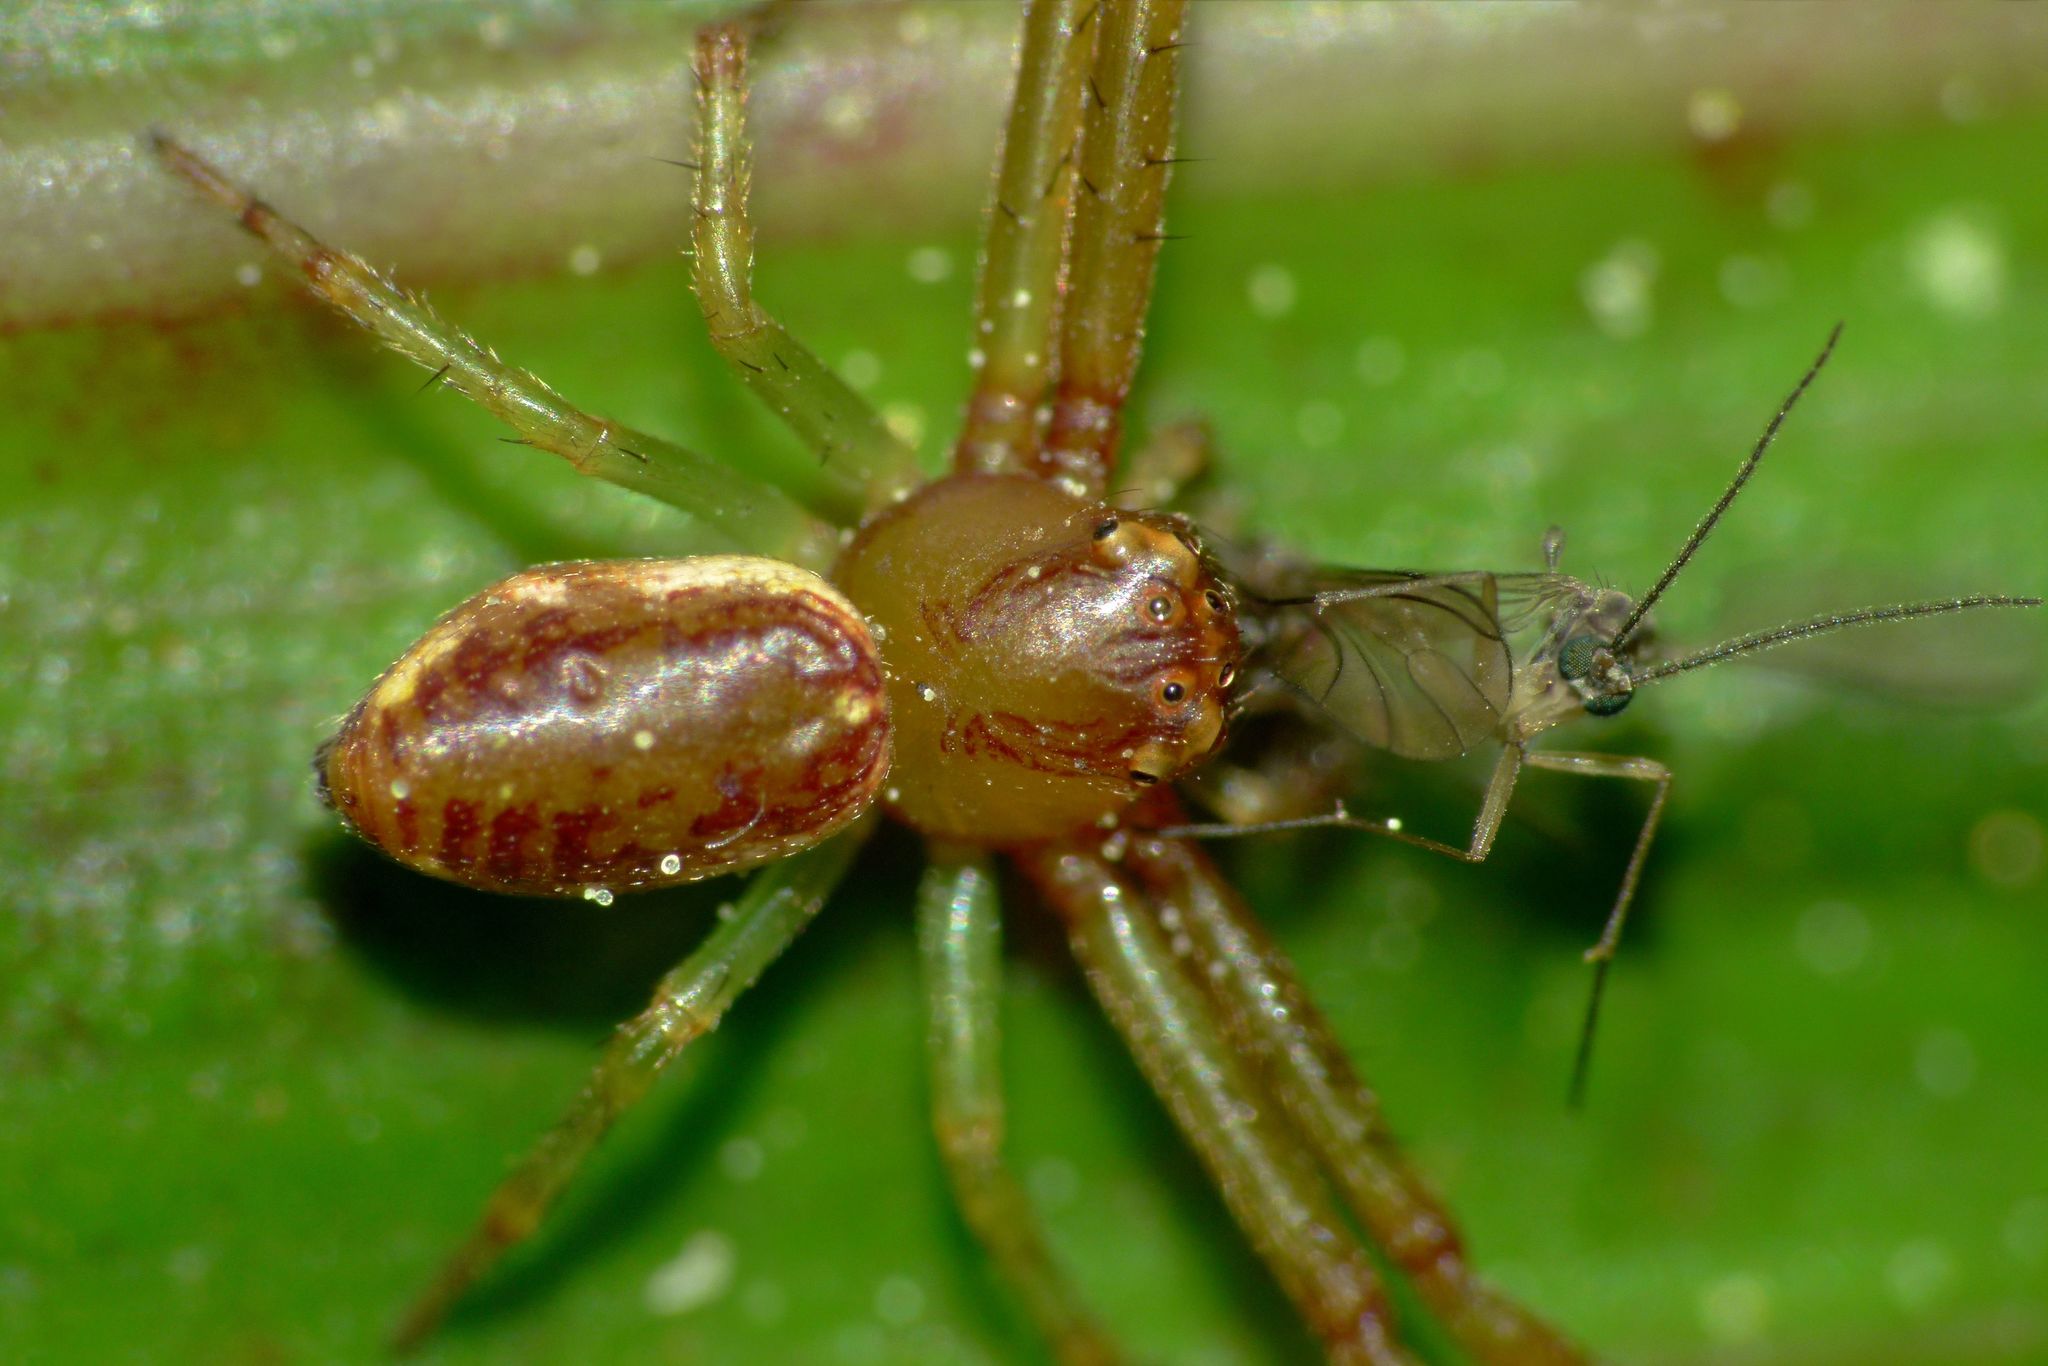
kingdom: Animalia
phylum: Arthropoda
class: Arachnida
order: Araneae
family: Thomisidae
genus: Diaea
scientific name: Diaea ambara
